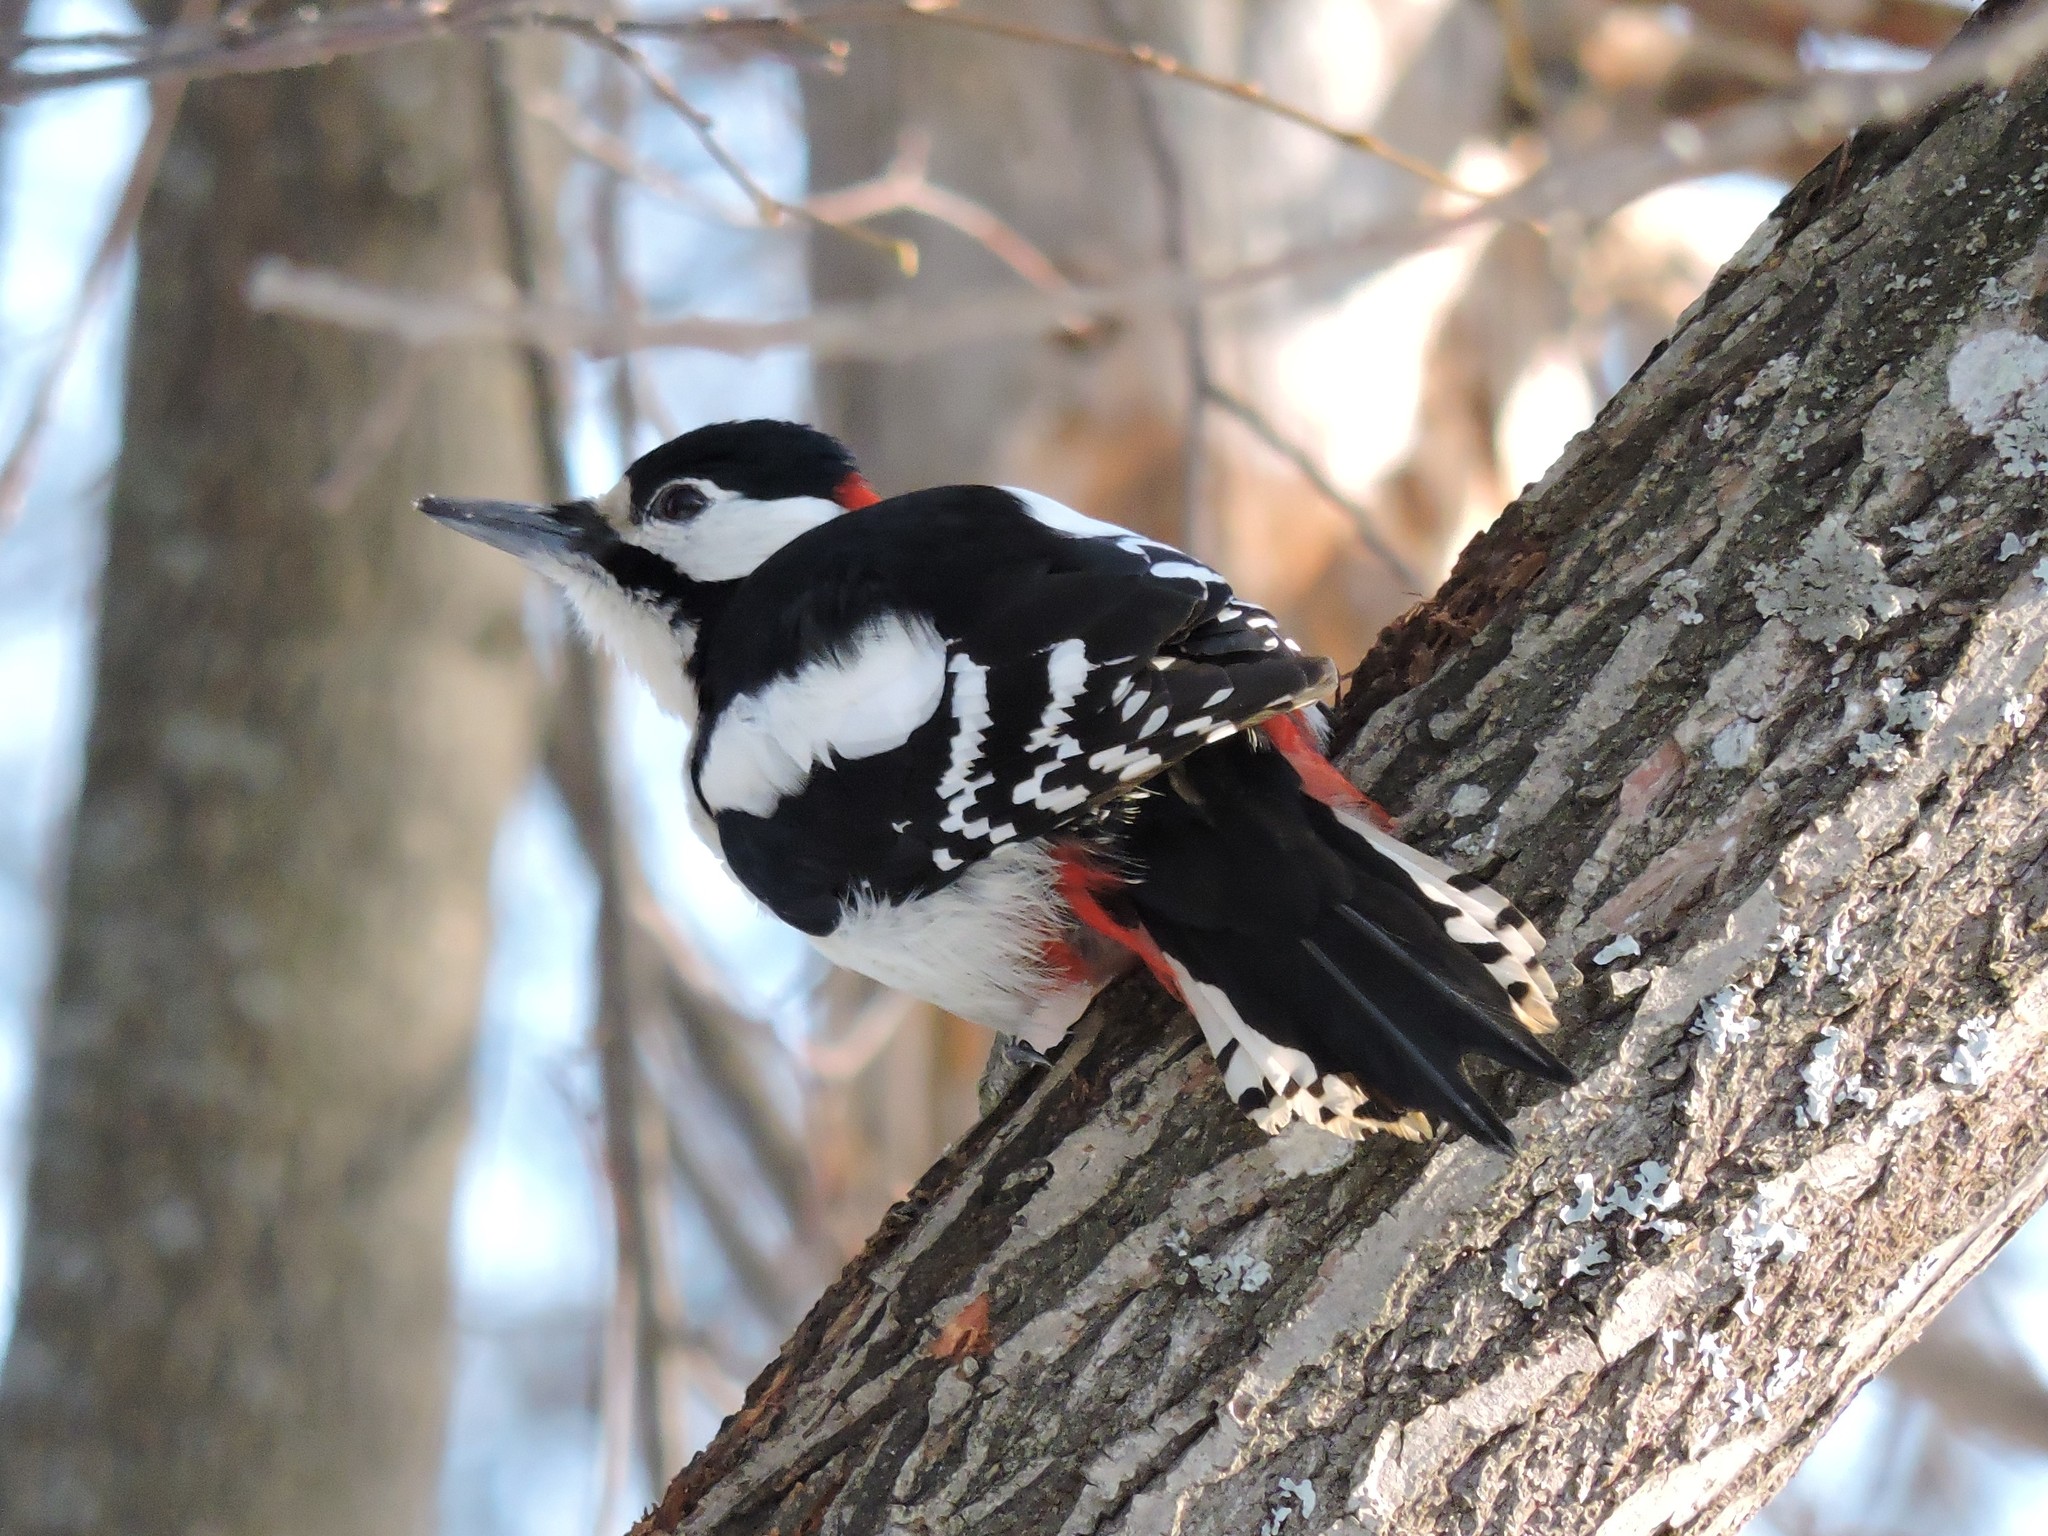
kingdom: Animalia
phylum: Chordata
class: Aves
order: Piciformes
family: Picidae
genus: Dendrocopos
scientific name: Dendrocopos major
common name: Great spotted woodpecker
